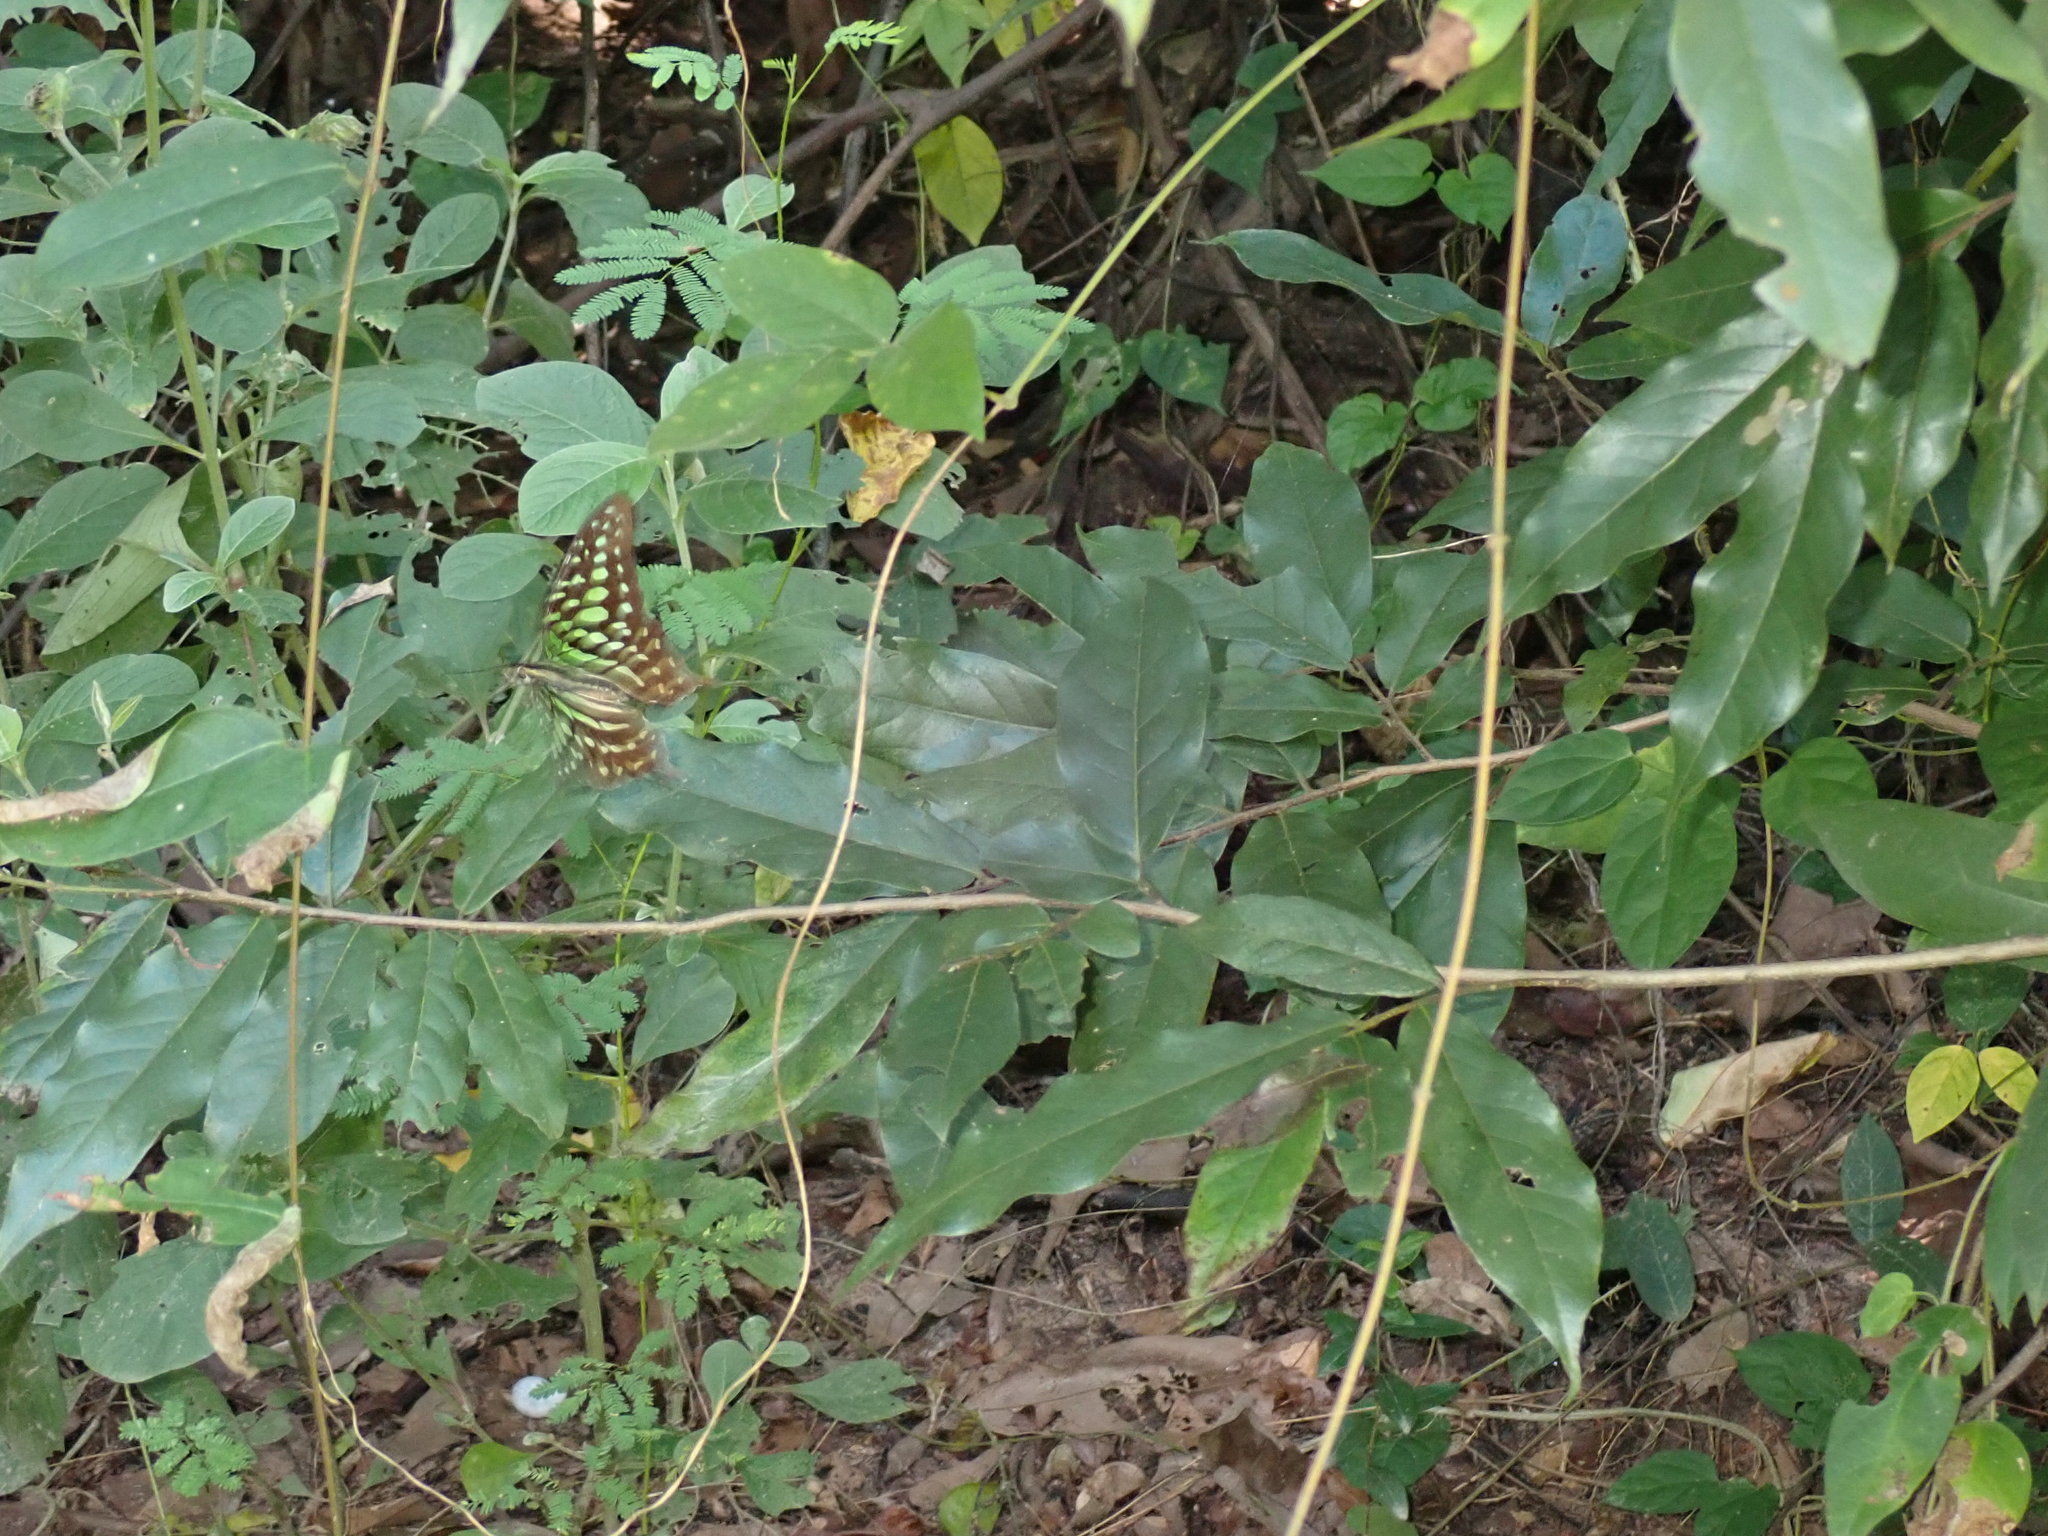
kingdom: Animalia
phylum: Arthropoda
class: Insecta
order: Lepidoptera
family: Papilionidae
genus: Graphium
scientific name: Graphium agamemnon
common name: Tailed jay
